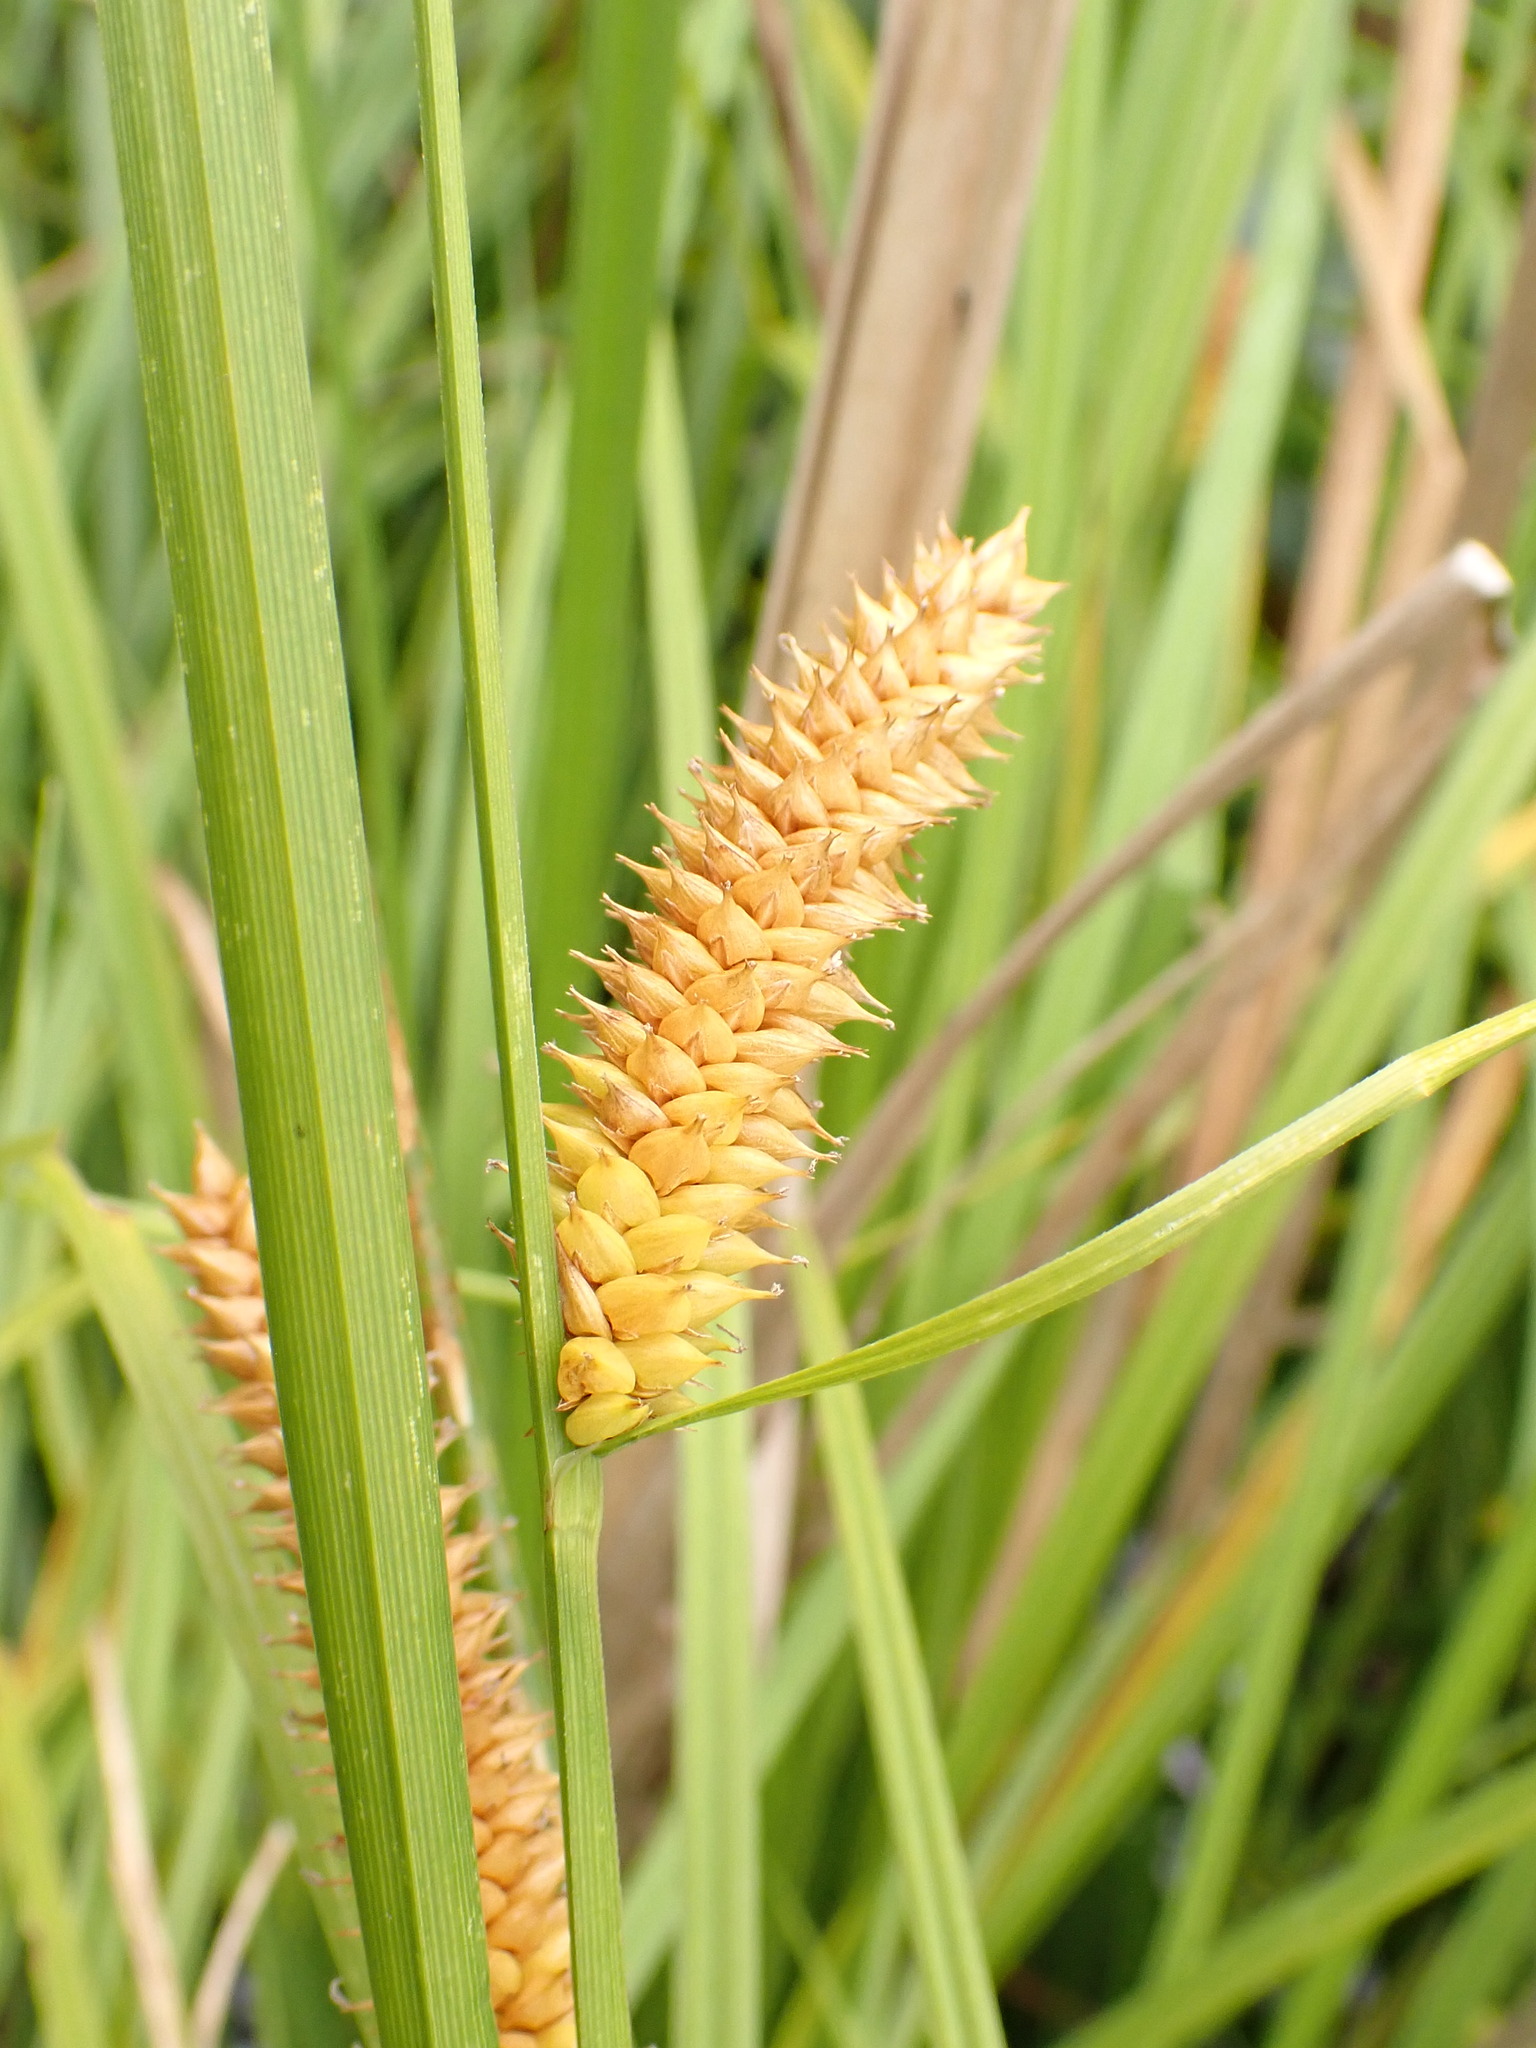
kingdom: Plantae
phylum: Tracheophyta
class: Liliopsida
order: Poales
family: Cyperaceae
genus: Carex
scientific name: Carex vesicaria
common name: Bladder-sedge
